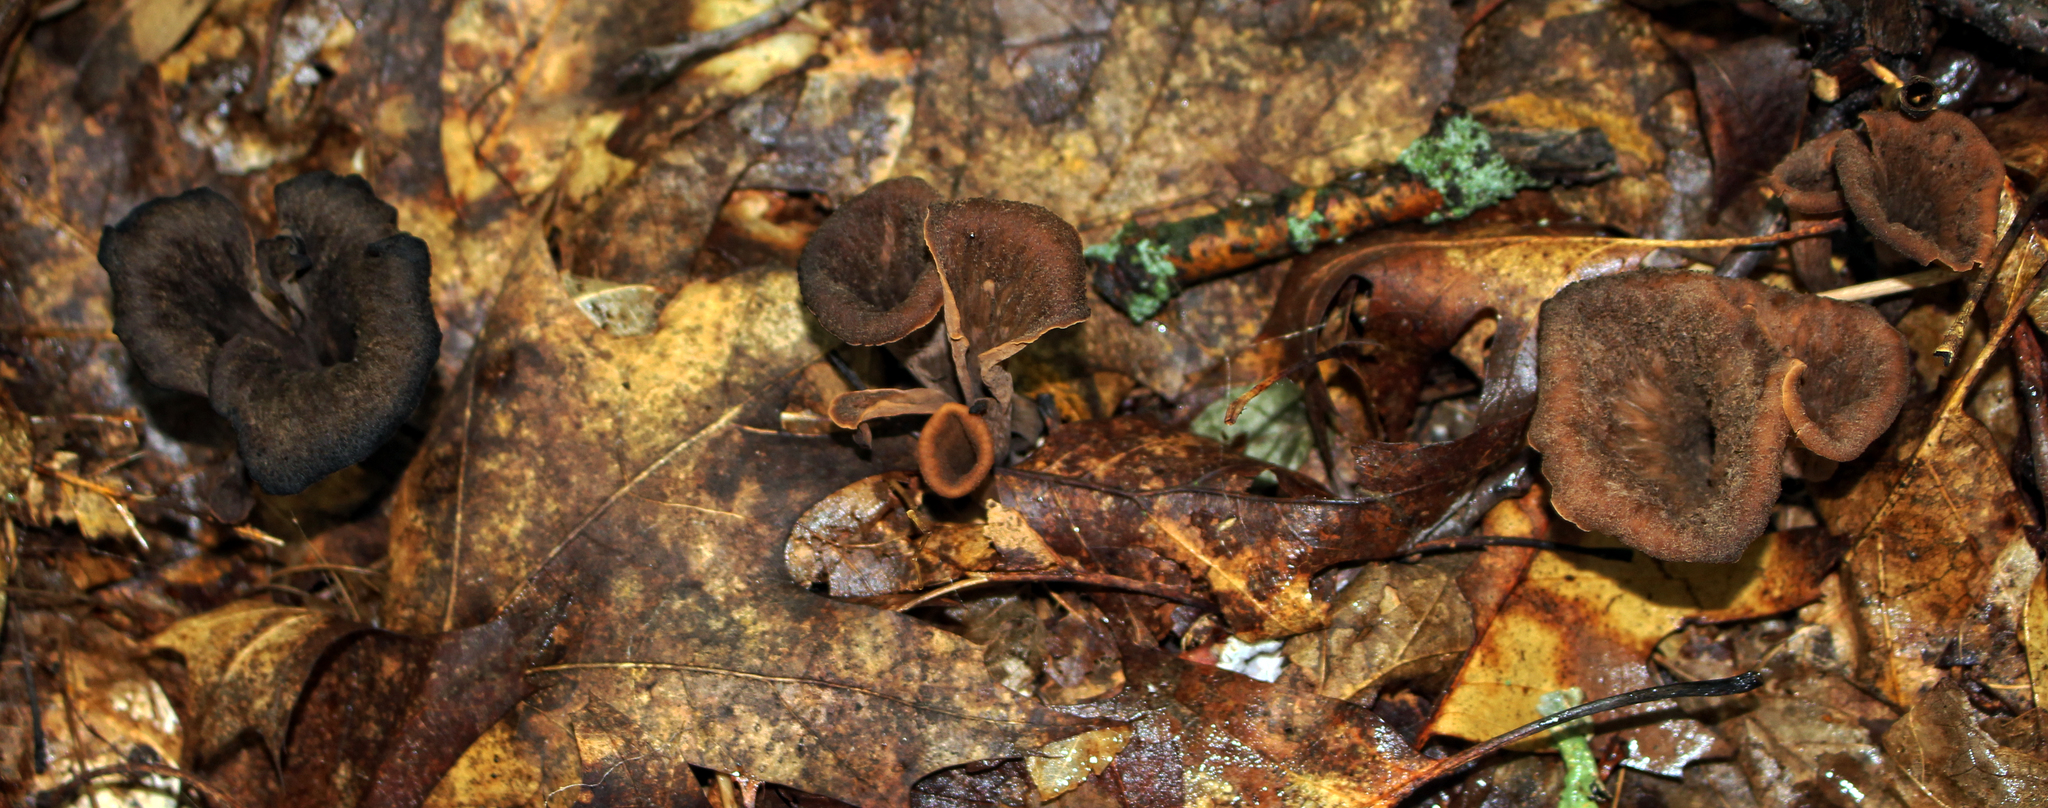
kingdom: Fungi
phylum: Basidiomycota
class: Agaricomycetes
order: Cantharellales
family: Hydnaceae
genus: Craterellus
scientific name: Craterellus cornucopioides
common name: Horn of plenty
